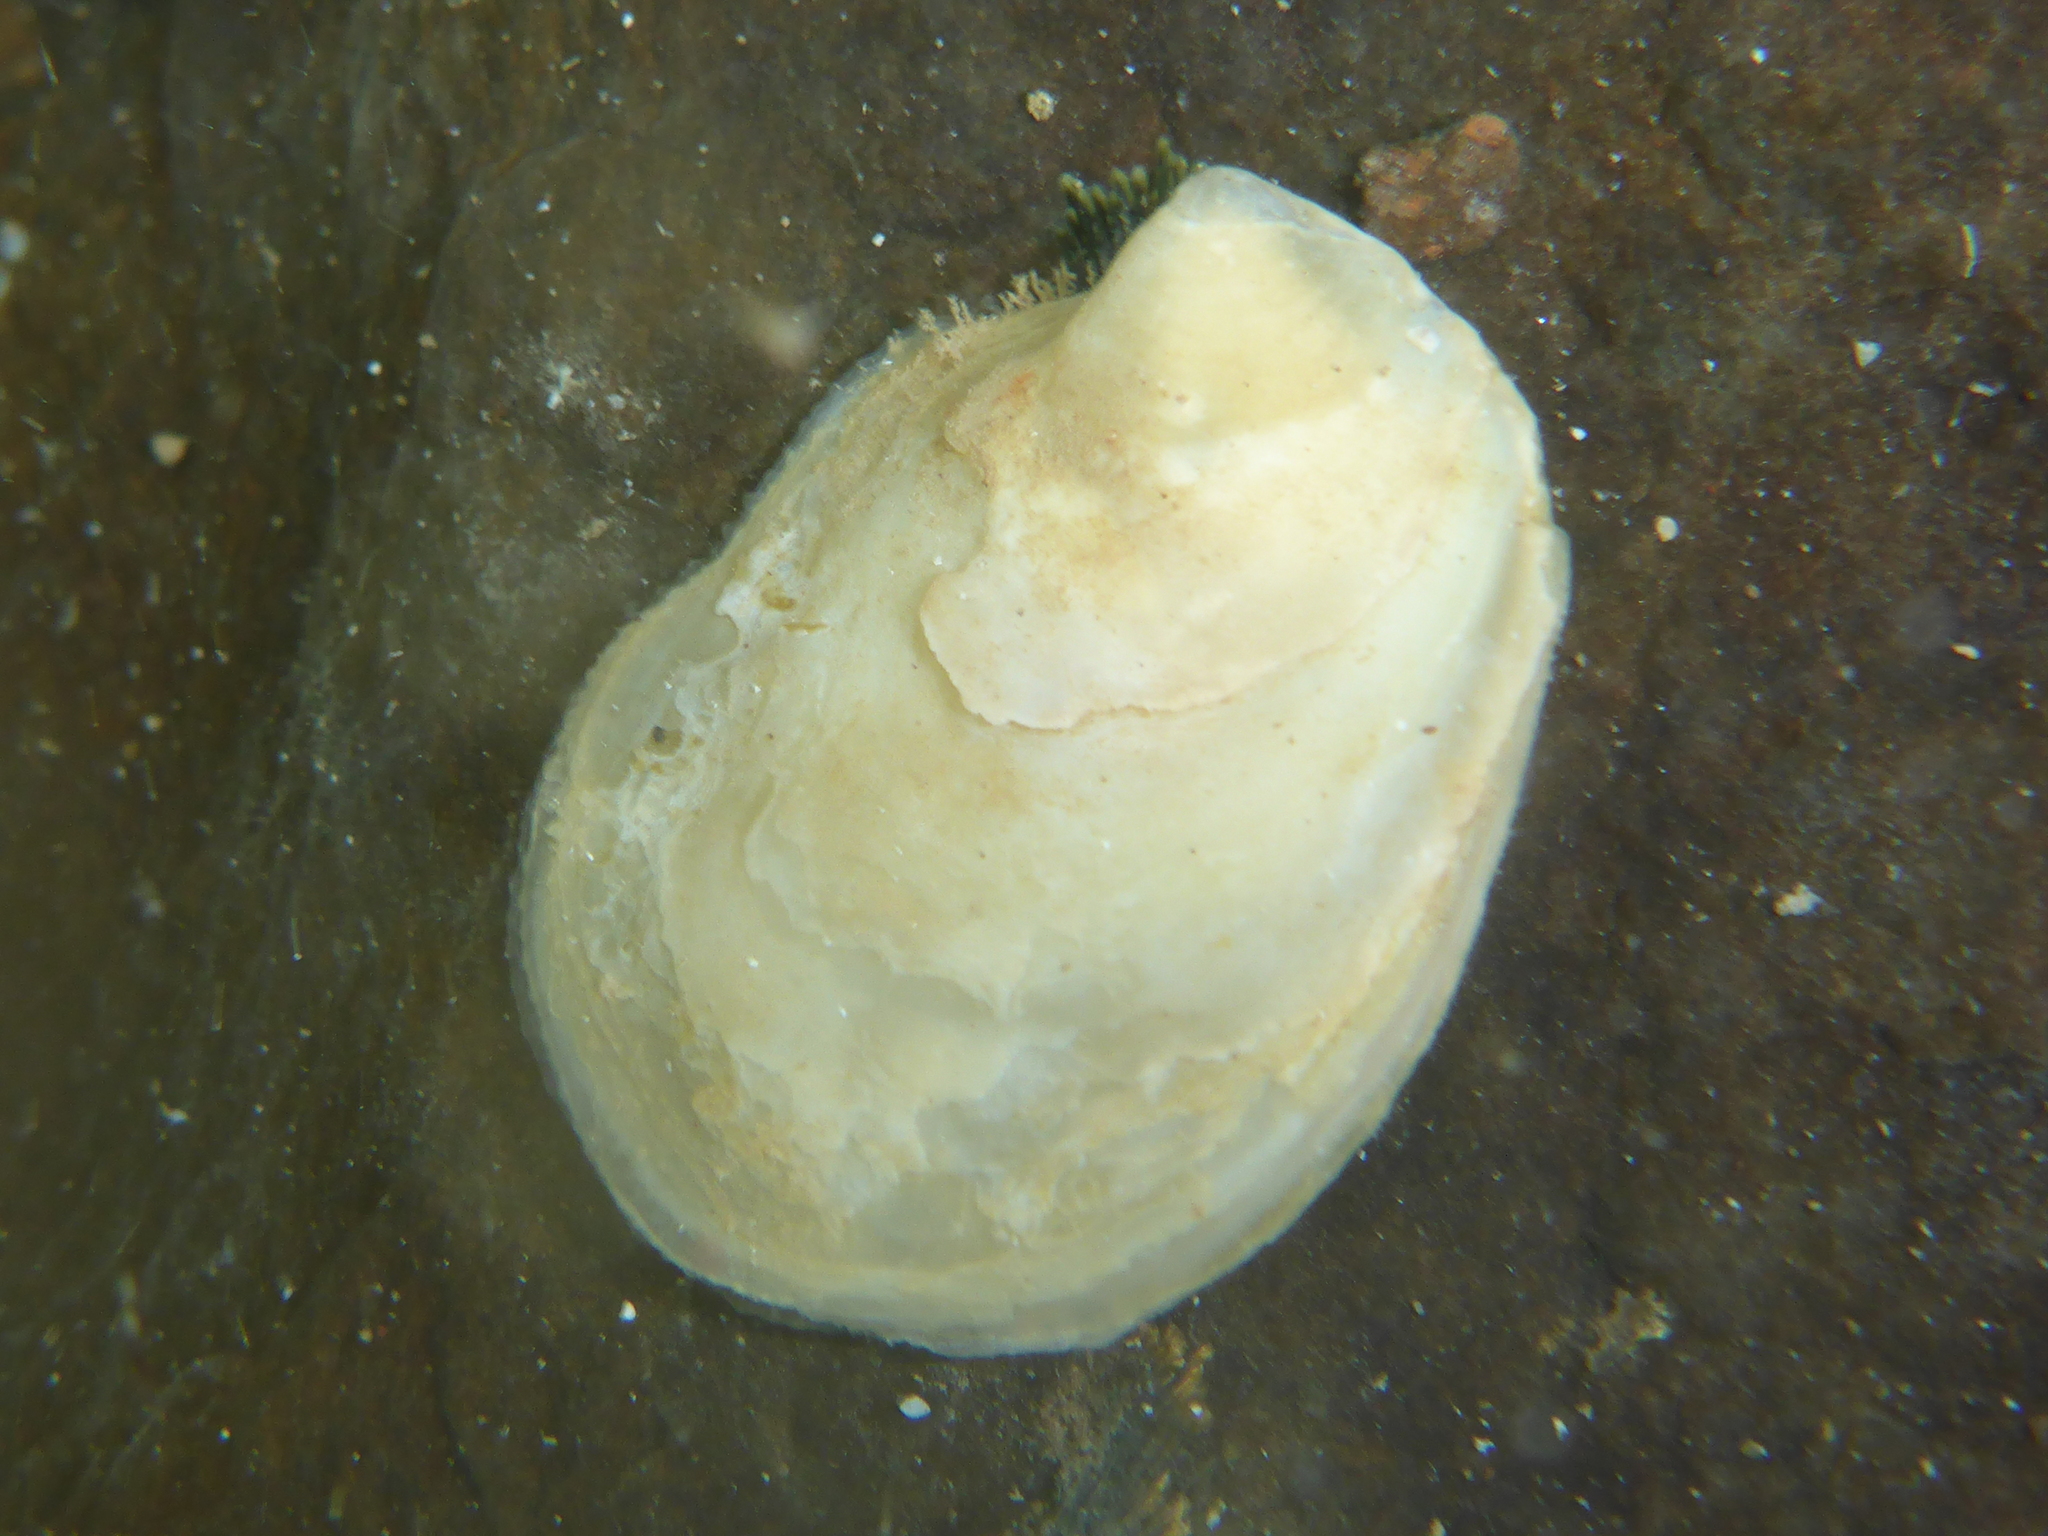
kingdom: Animalia
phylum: Mollusca
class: Bivalvia
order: Ostreida
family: Isognomonidae
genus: Isognomon
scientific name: Isognomon perna
